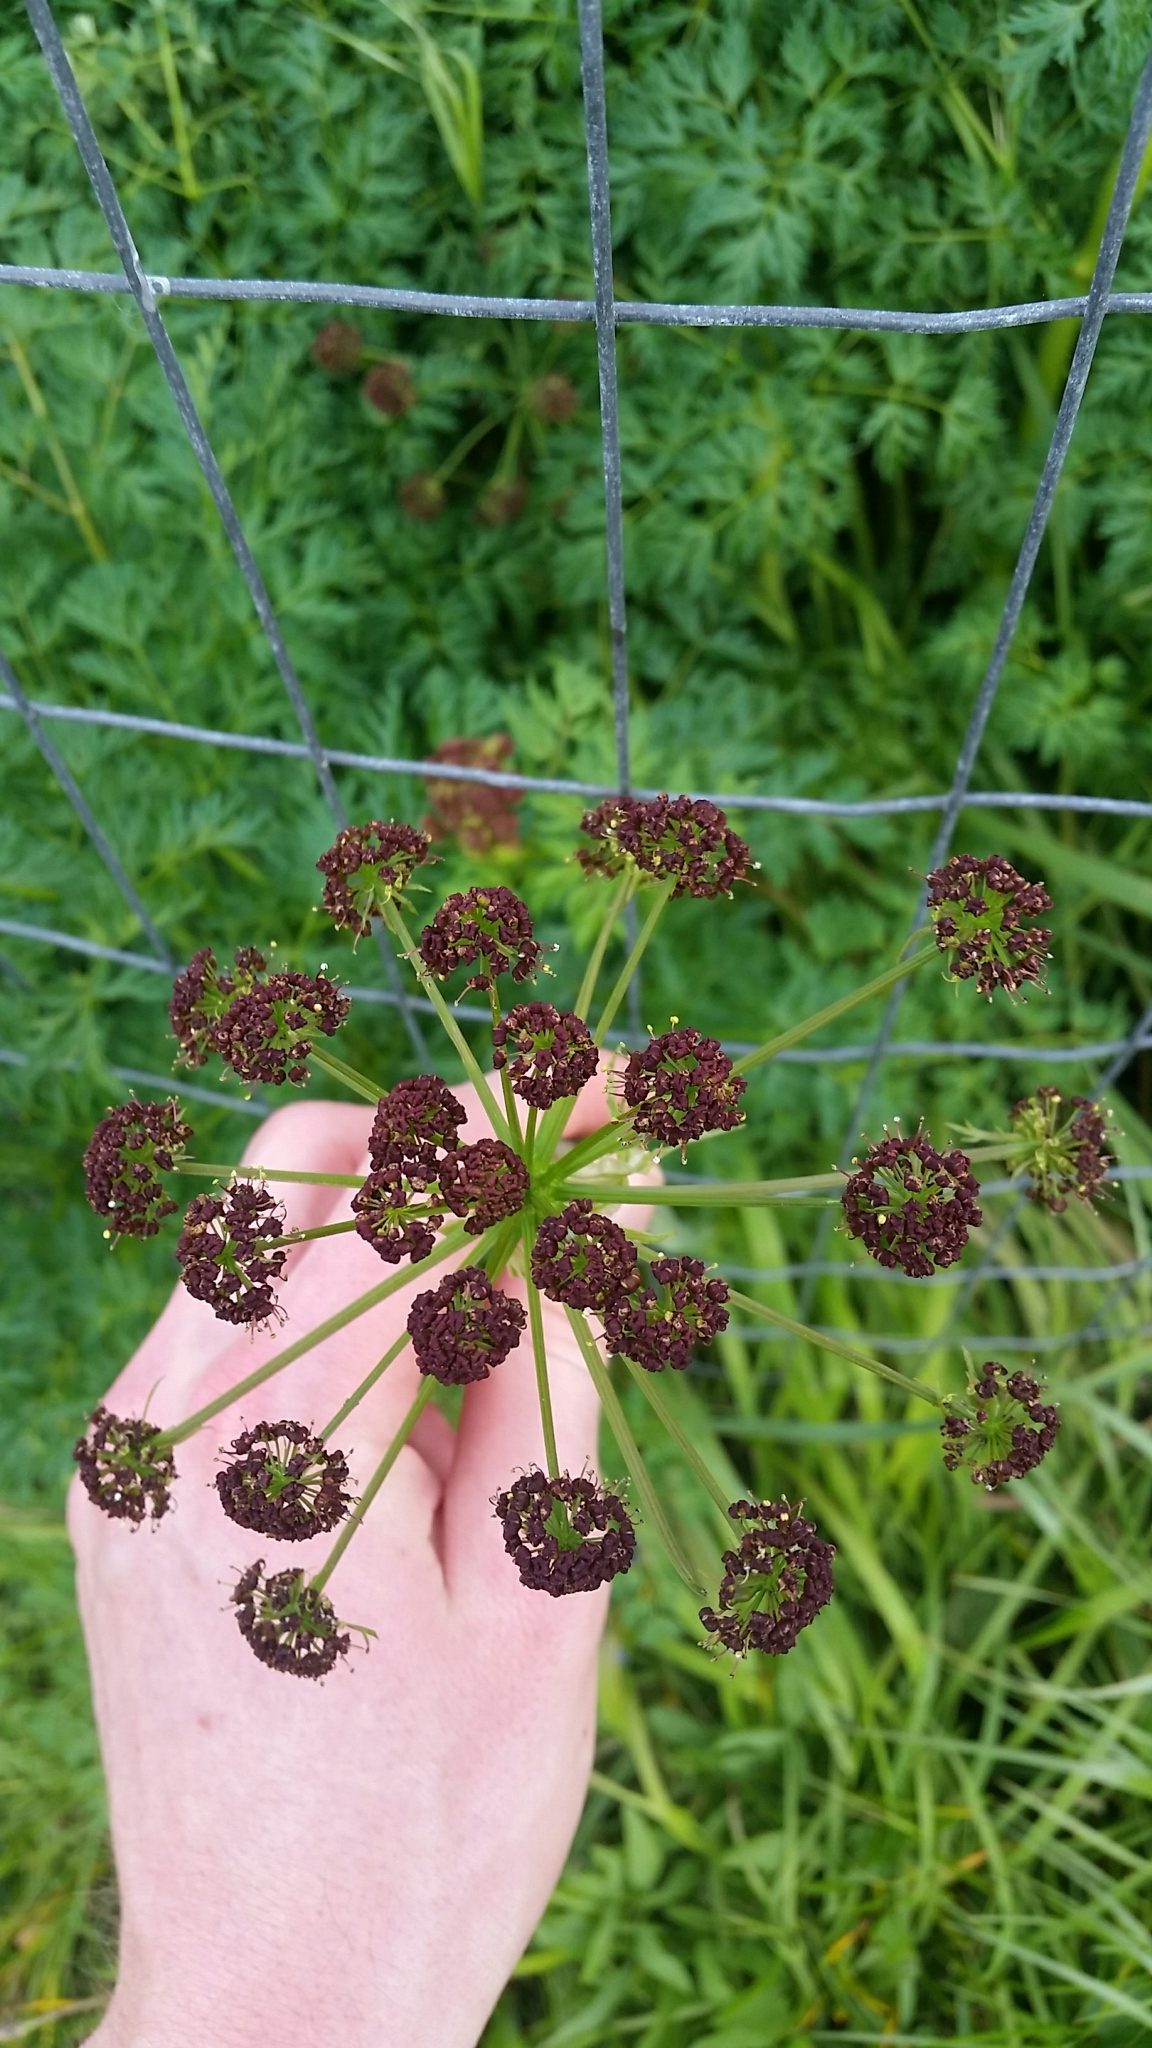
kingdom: Plantae
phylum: Tracheophyta
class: Magnoliopsida
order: Apiales
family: Apiaceae
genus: Lomatium
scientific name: Lomatium dissectum
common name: Lomatium
